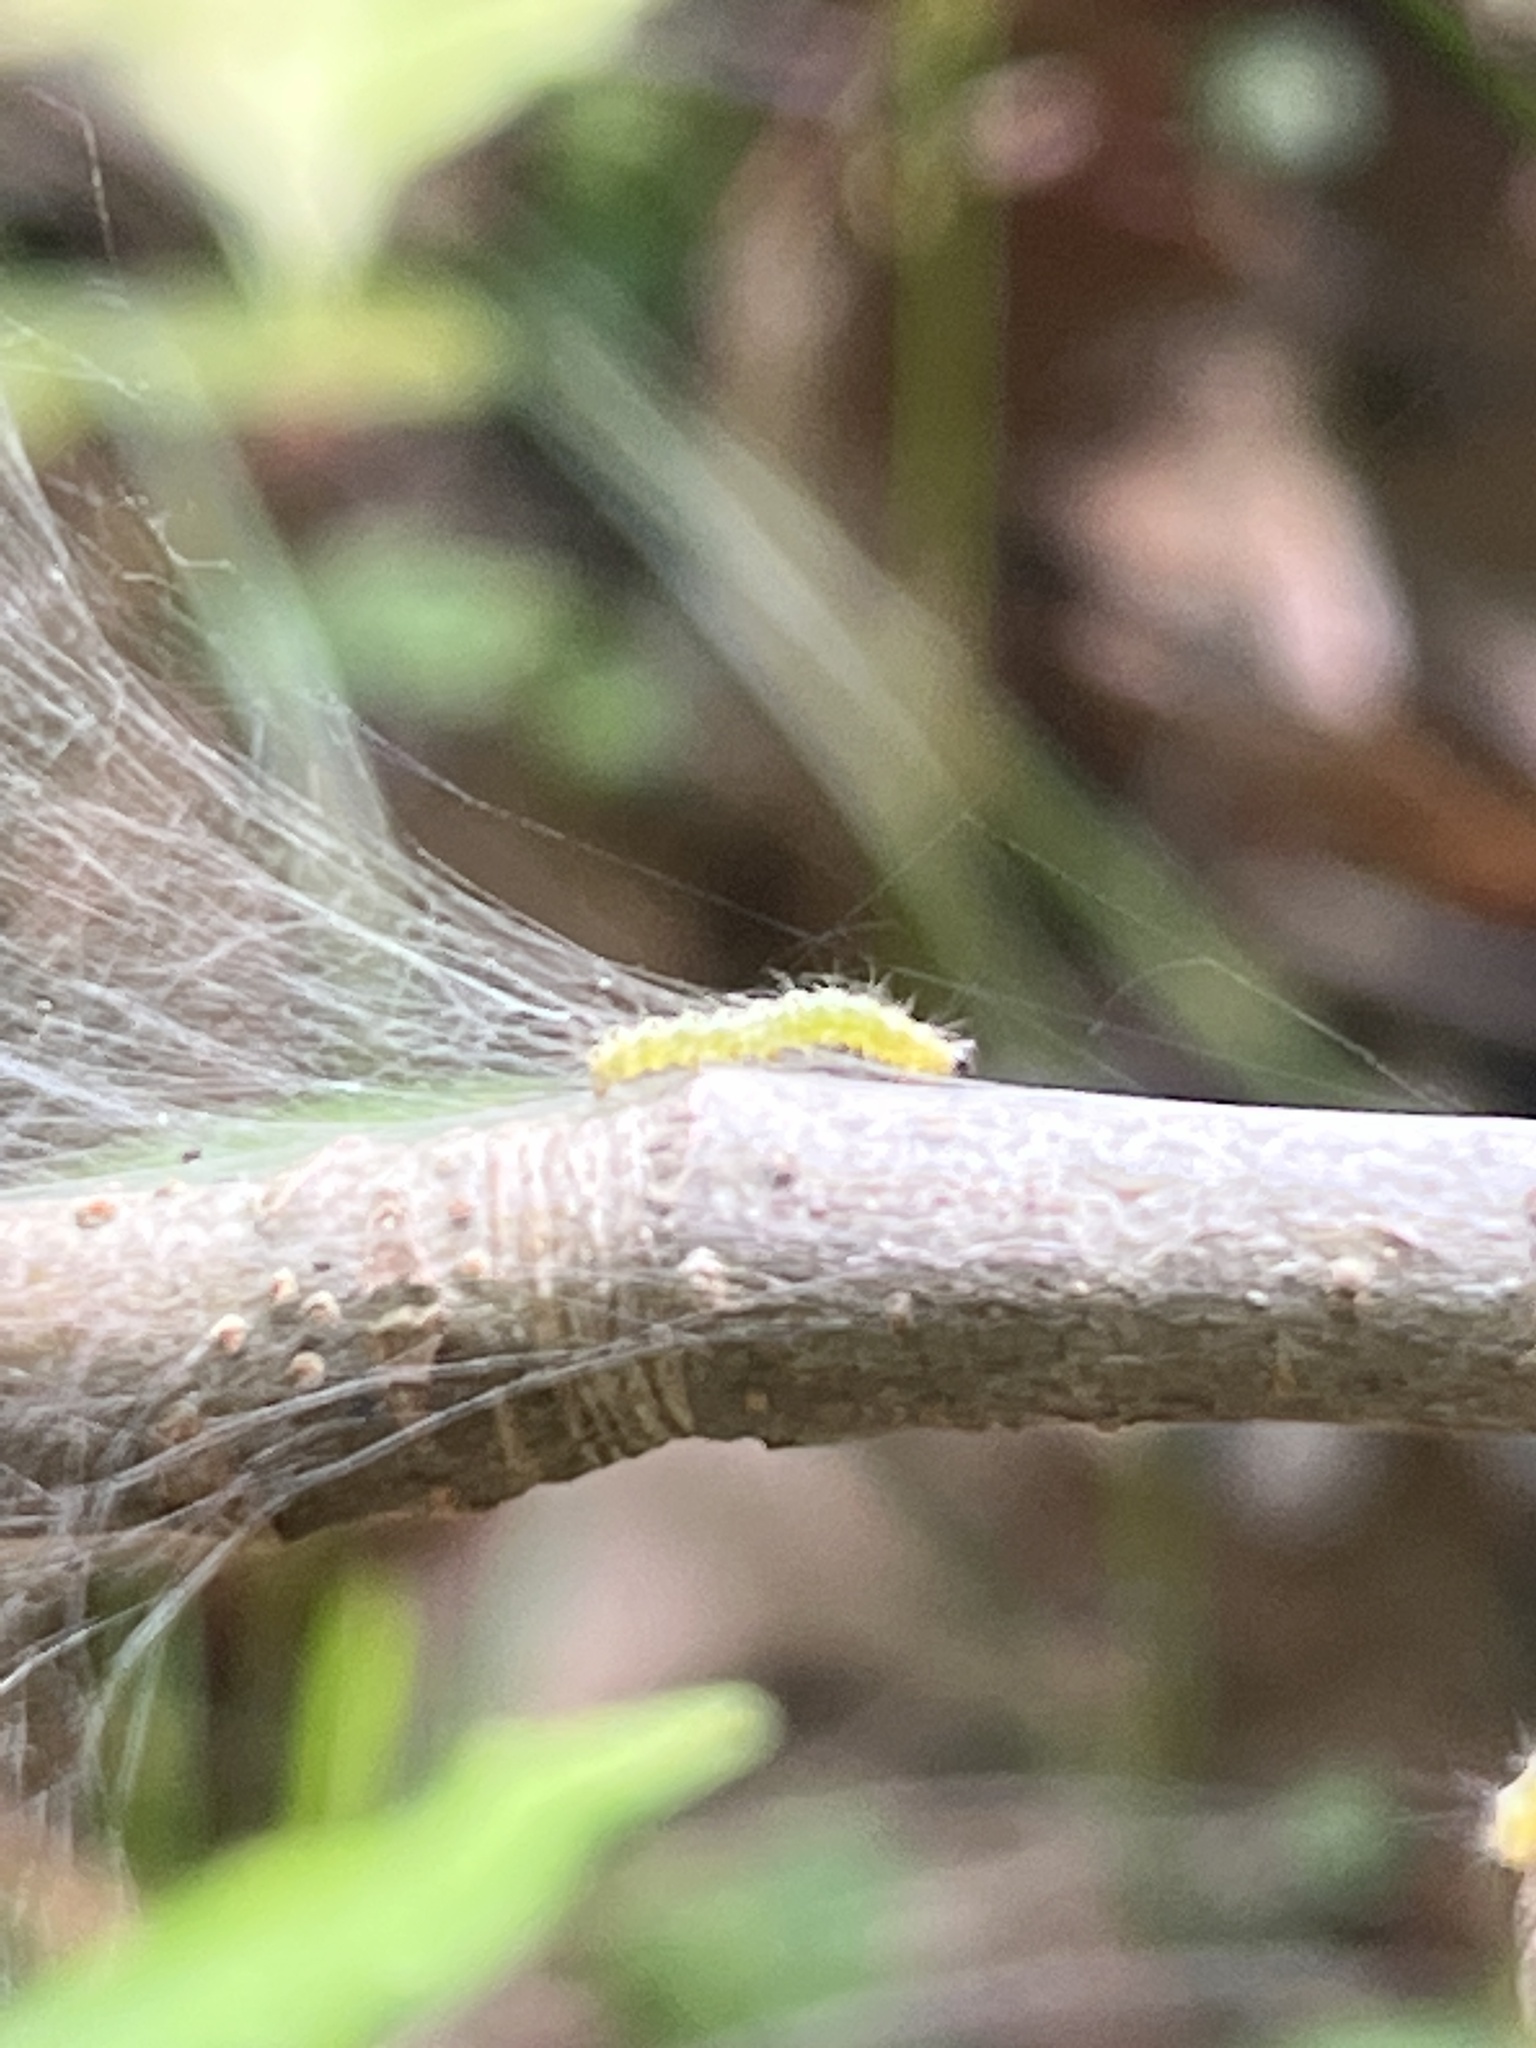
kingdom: Animalia
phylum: Arthropoda
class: Insecta
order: Lepidoptera
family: Erebidae
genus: Hyphantria
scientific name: Hyphantria cunea
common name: American white moth
